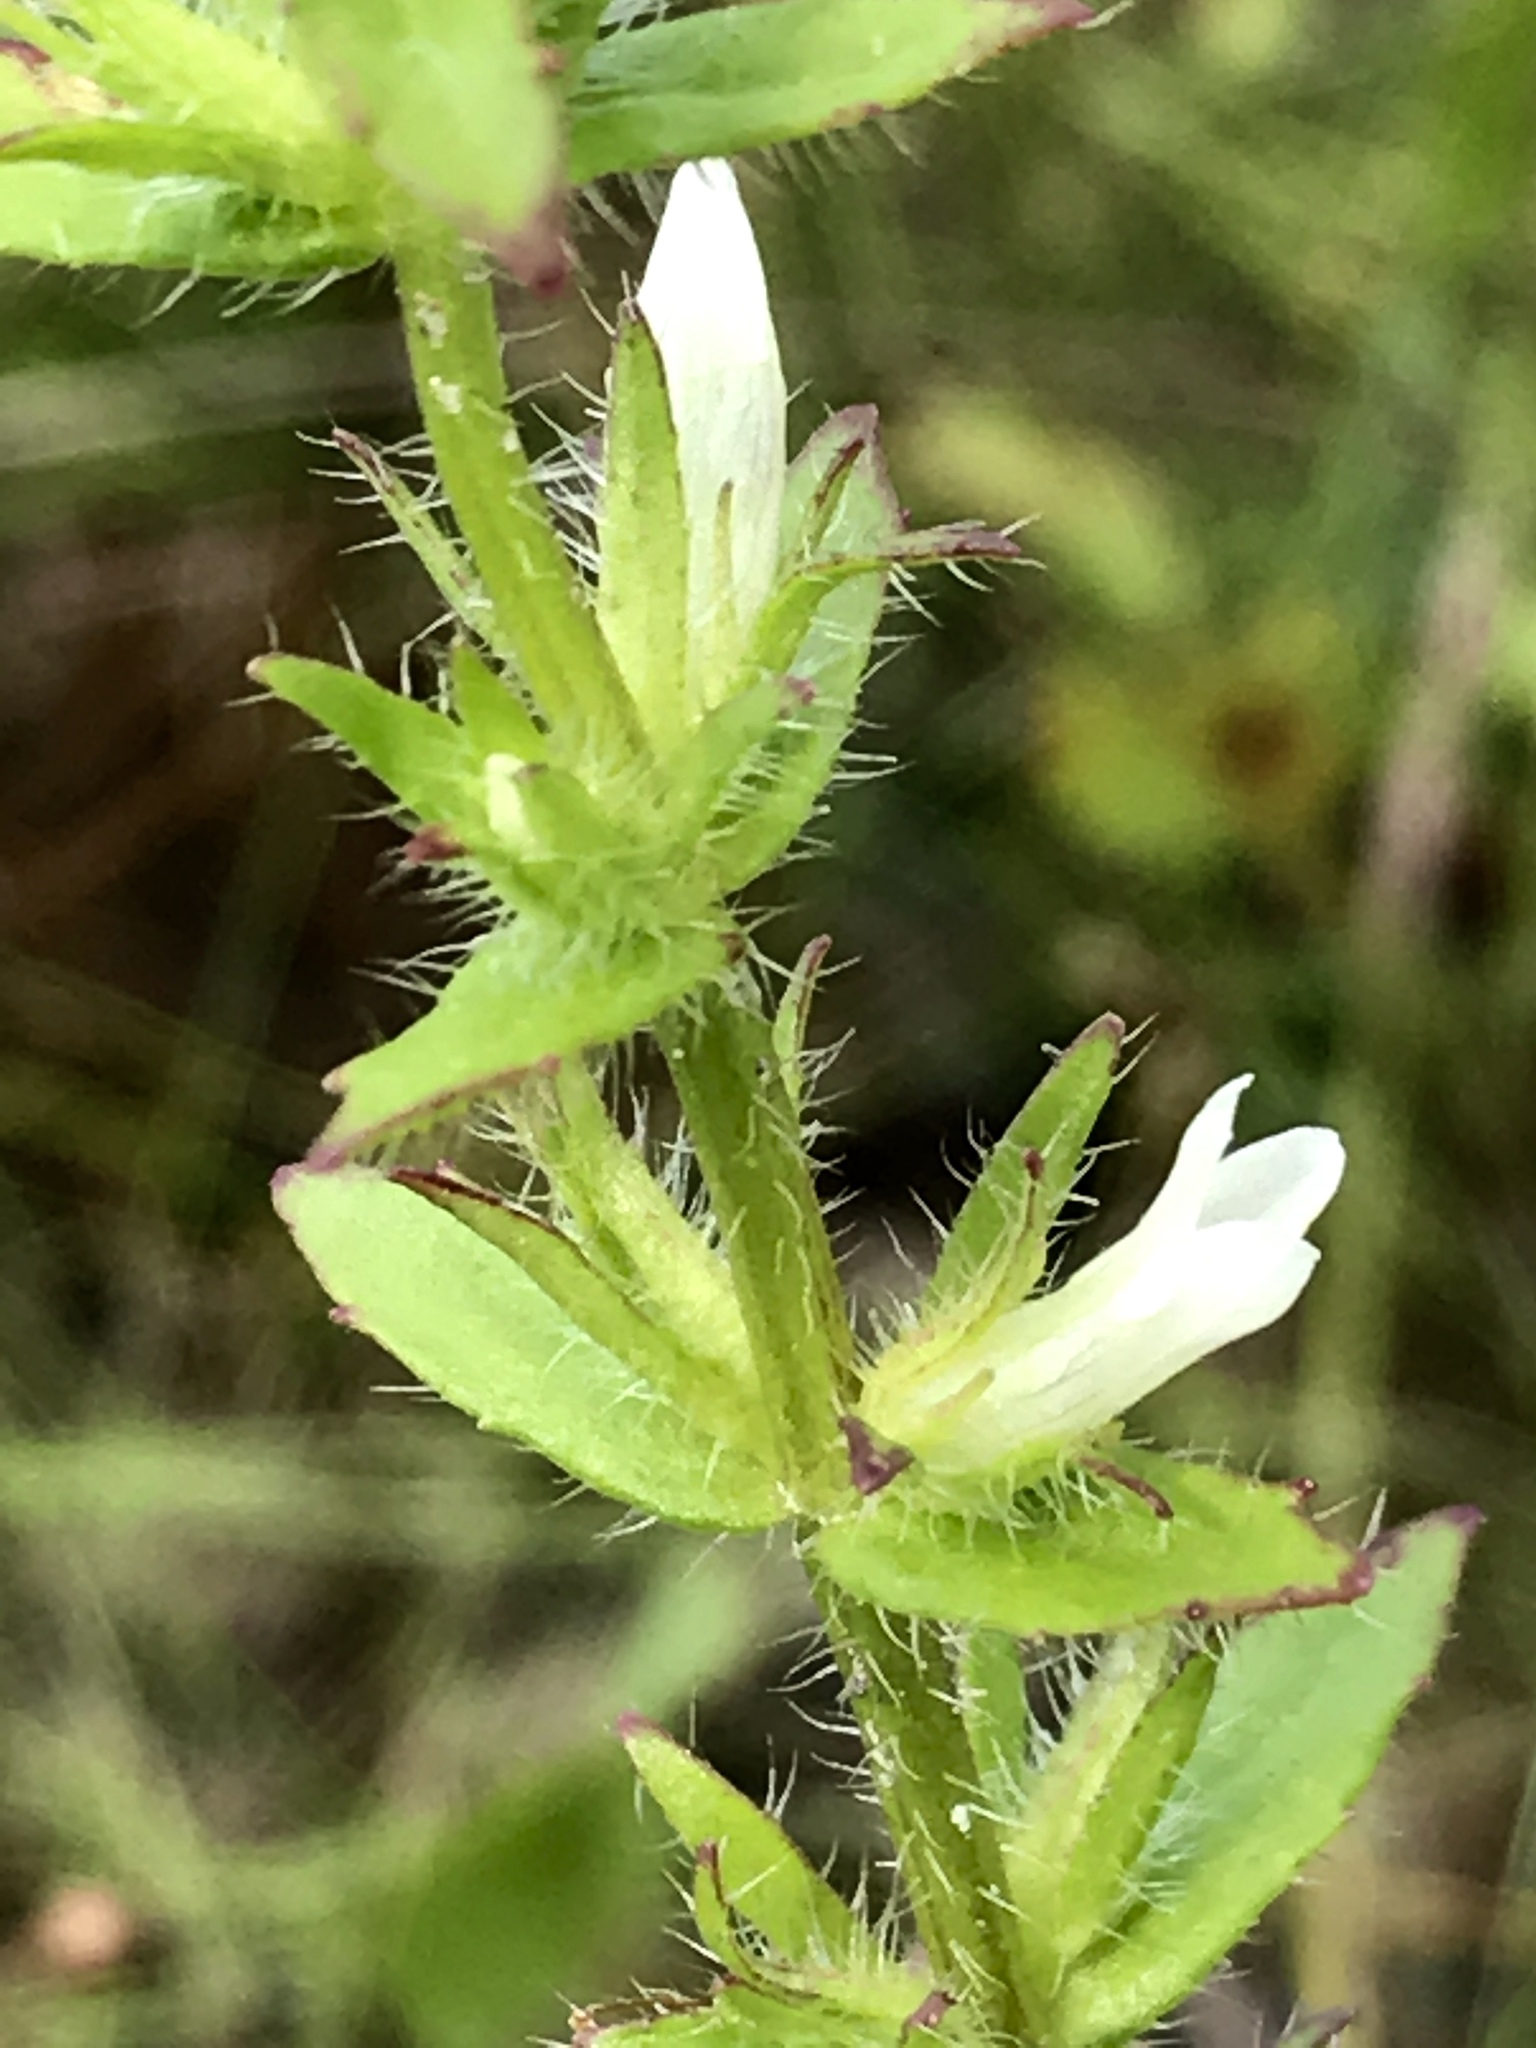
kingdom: Plantae
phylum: Tracheophyta
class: Magnoliopsida
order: Lamiales
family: Plantaginaceae
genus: Gratiola
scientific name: Gratiola pilosa
